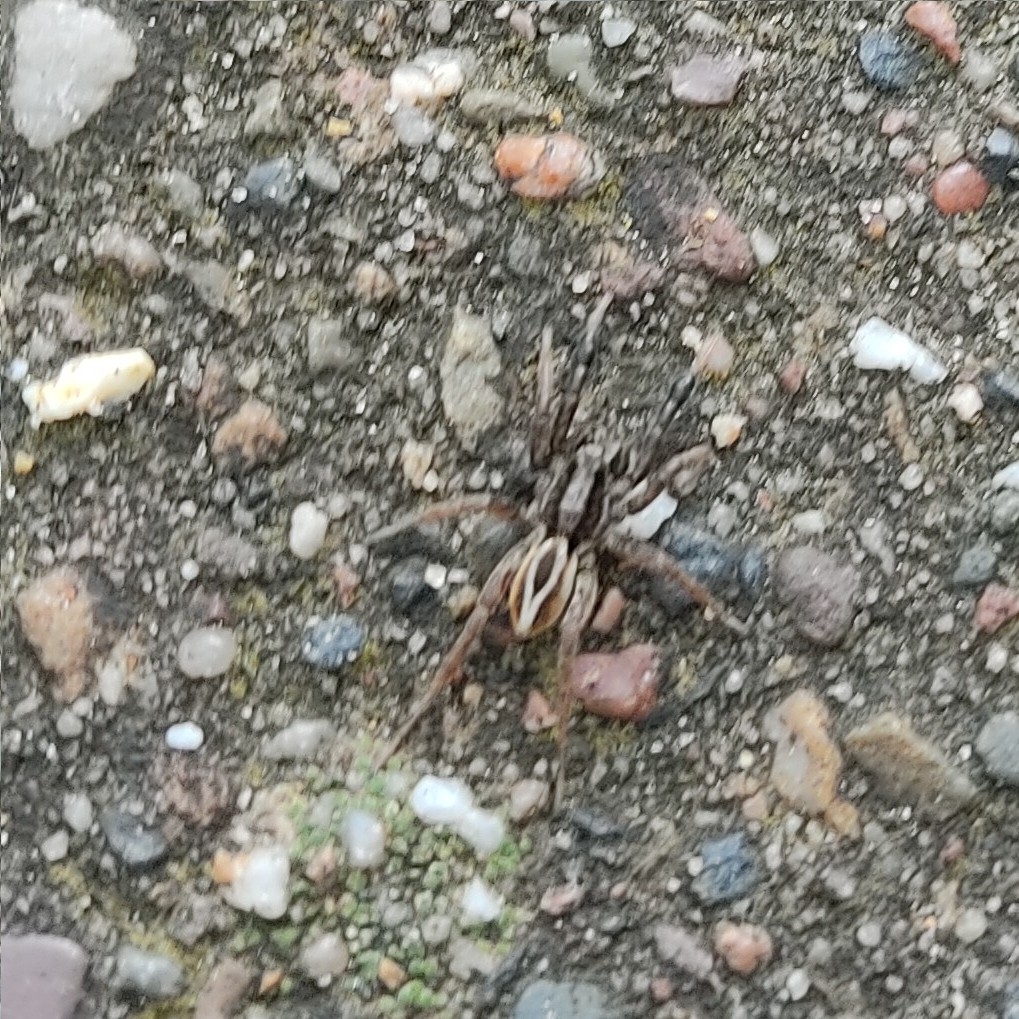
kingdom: Animalia
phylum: Arthropoda
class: Arachnida
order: Araneae
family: Lycosidae
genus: Alopecosa
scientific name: Alopecosa cuneata
